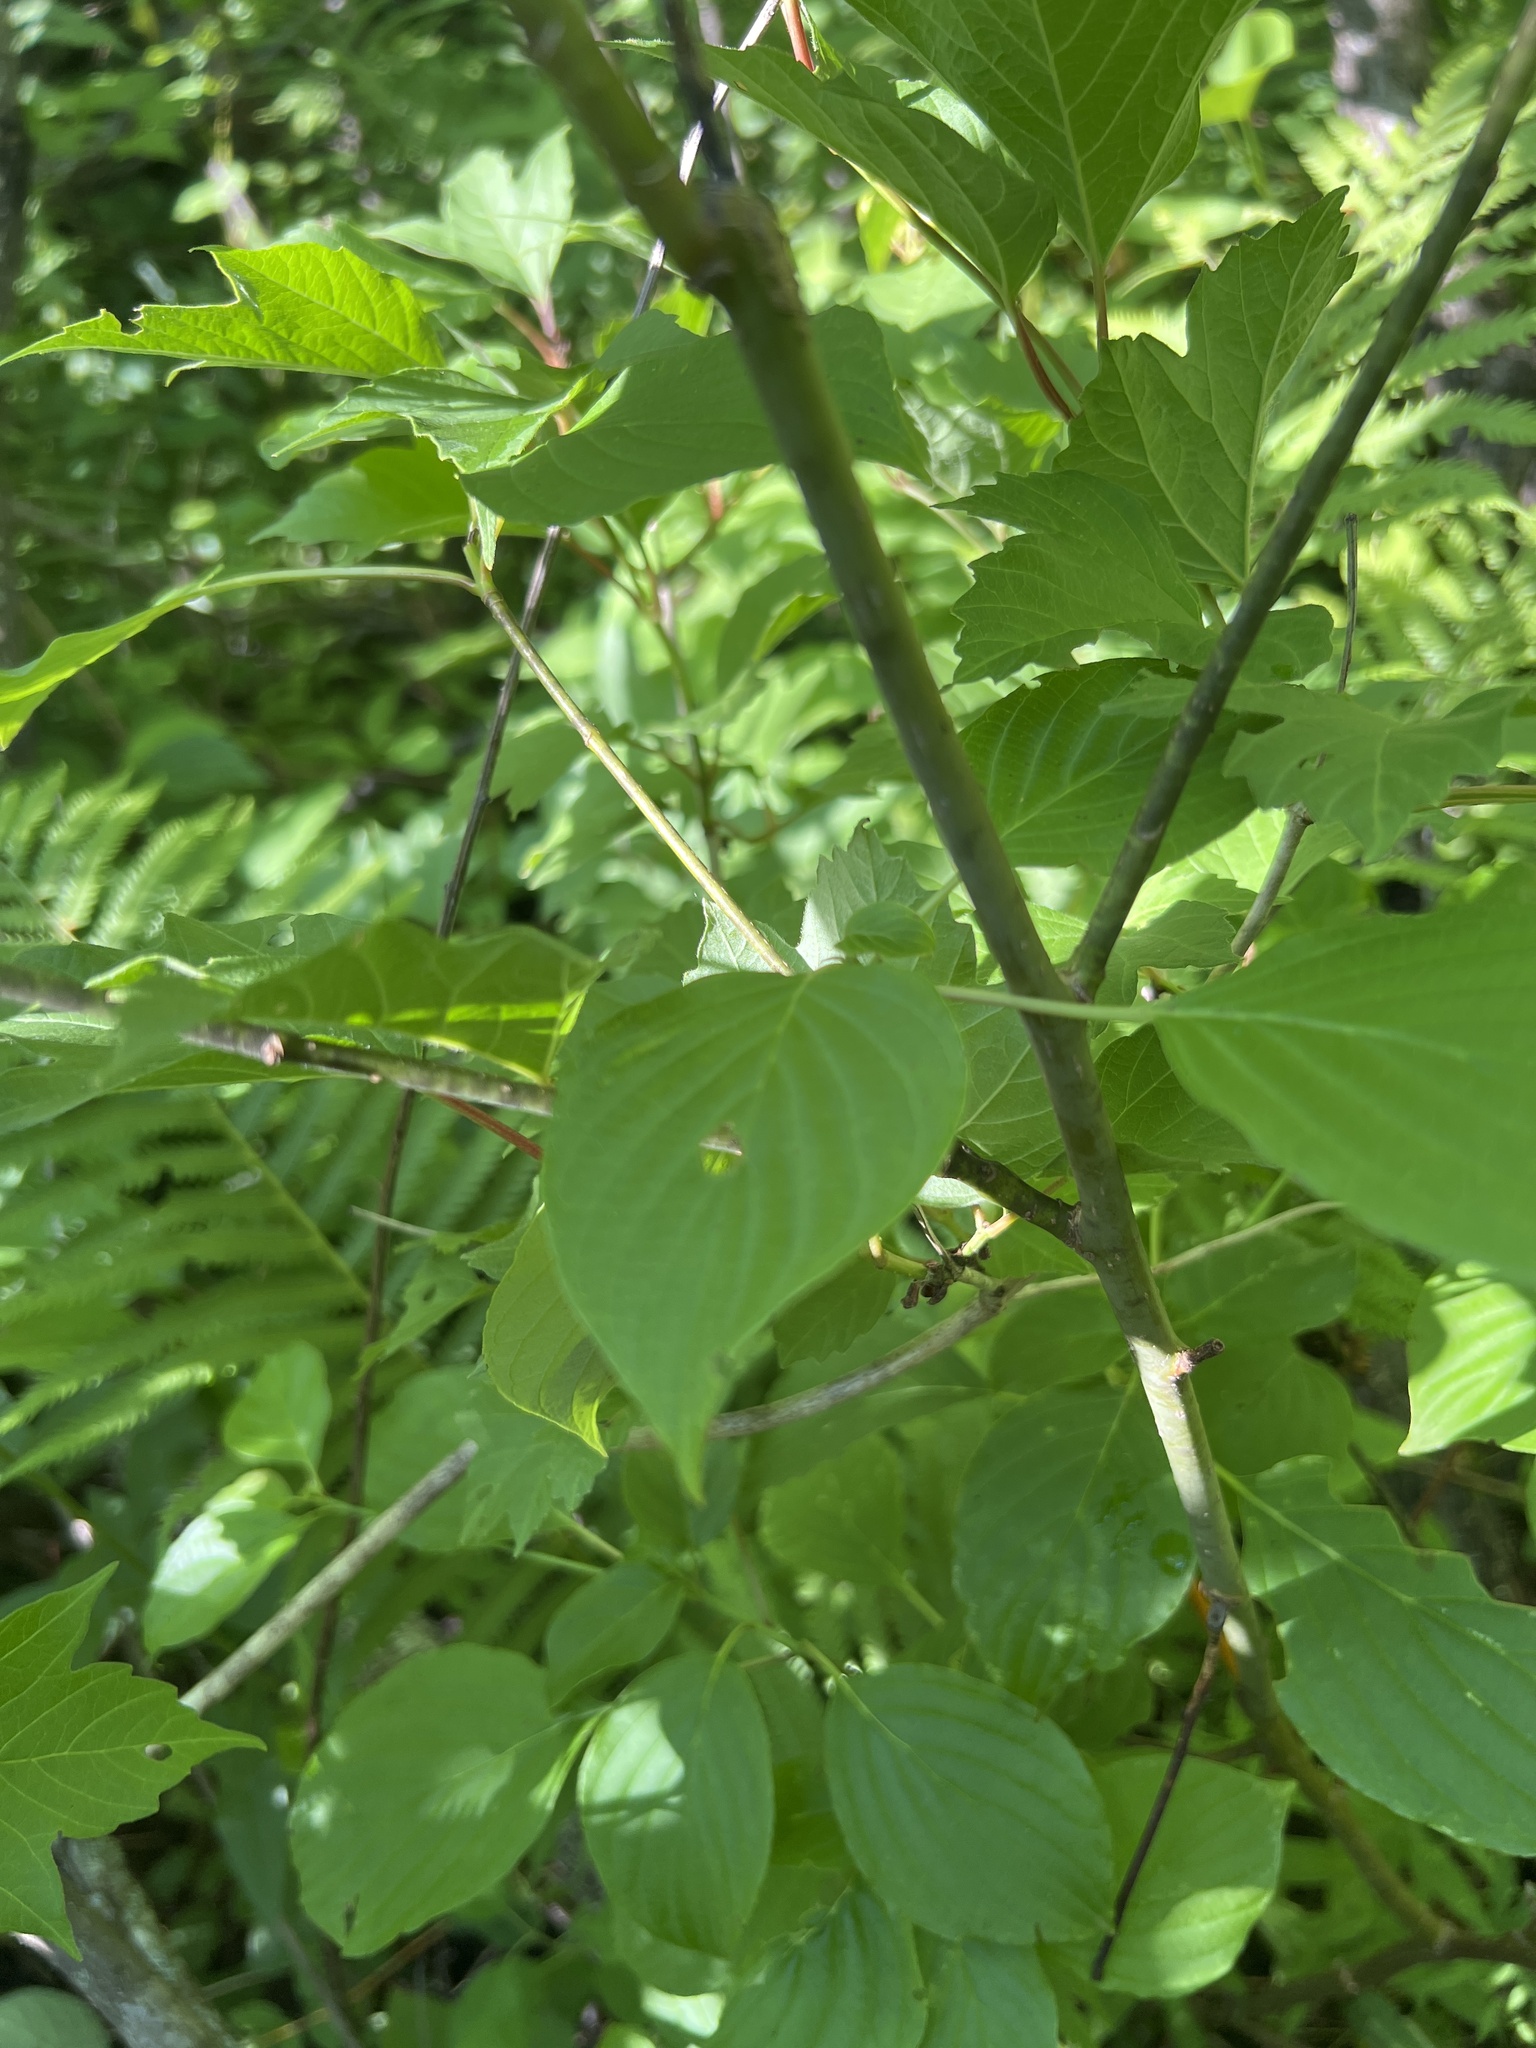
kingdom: Plantae
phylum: Tracheophyta
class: Magnoliopsida
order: Cornales
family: Cornaceae
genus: Cornus
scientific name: Cornus alternifolia
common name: Pagoda dogwood
